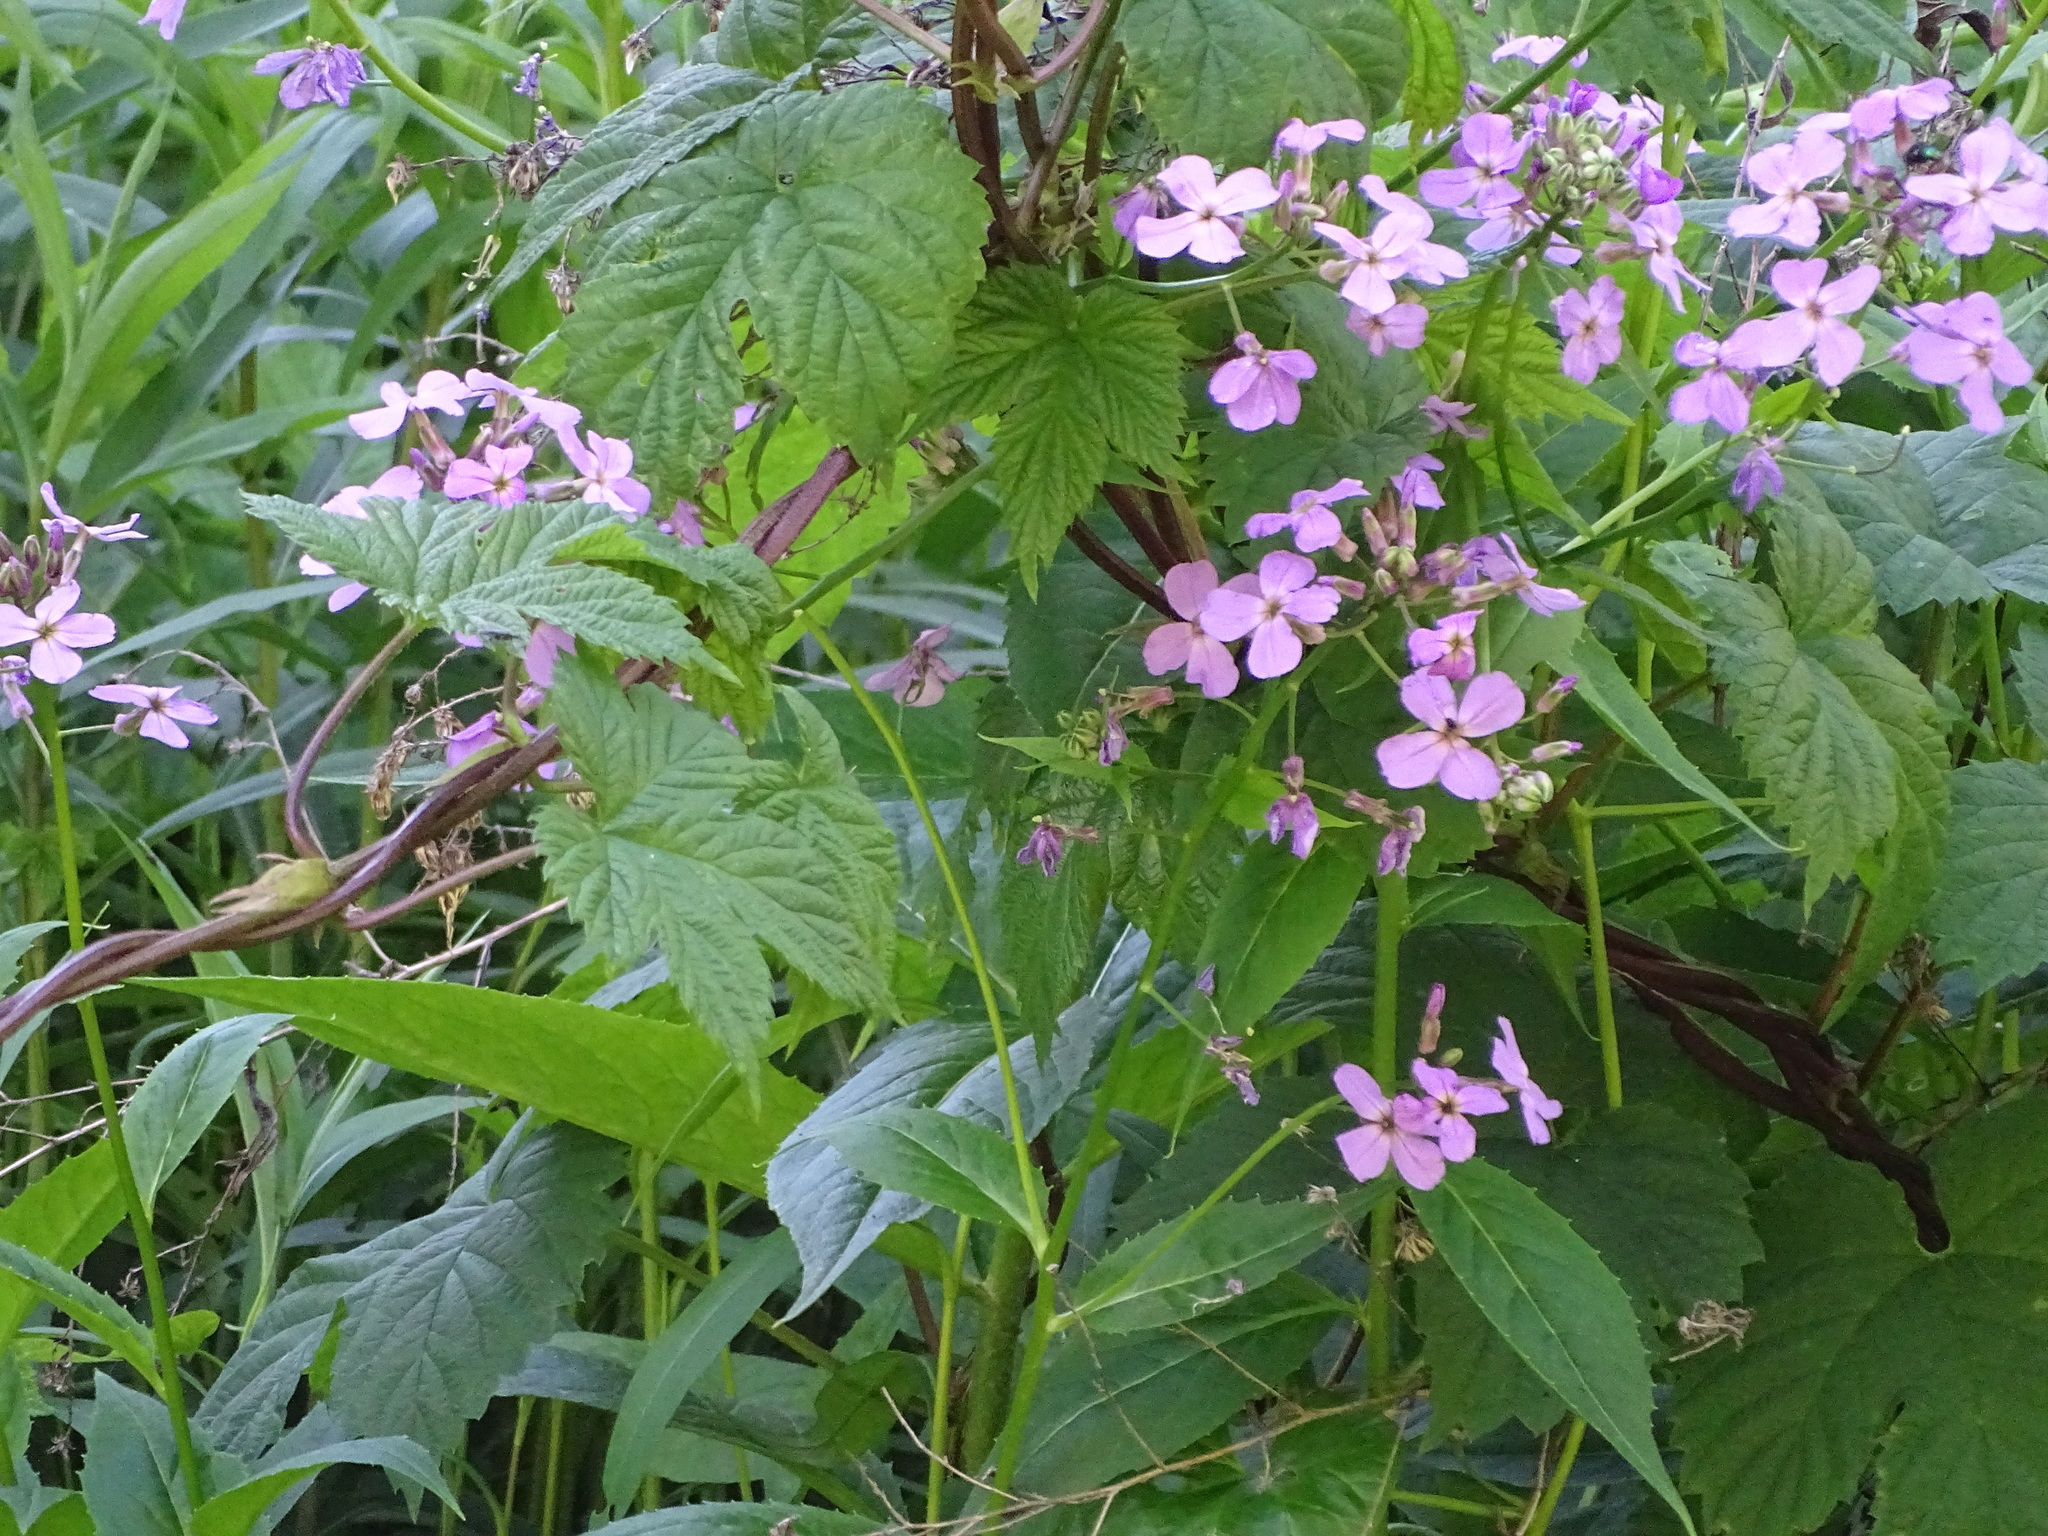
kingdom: Plantae
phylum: Tracheophyta
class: Magnoliopsida
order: Brassicales
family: Brassicaceae
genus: Hesperis
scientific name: Hesperis matronalis
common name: Dame's-violet
